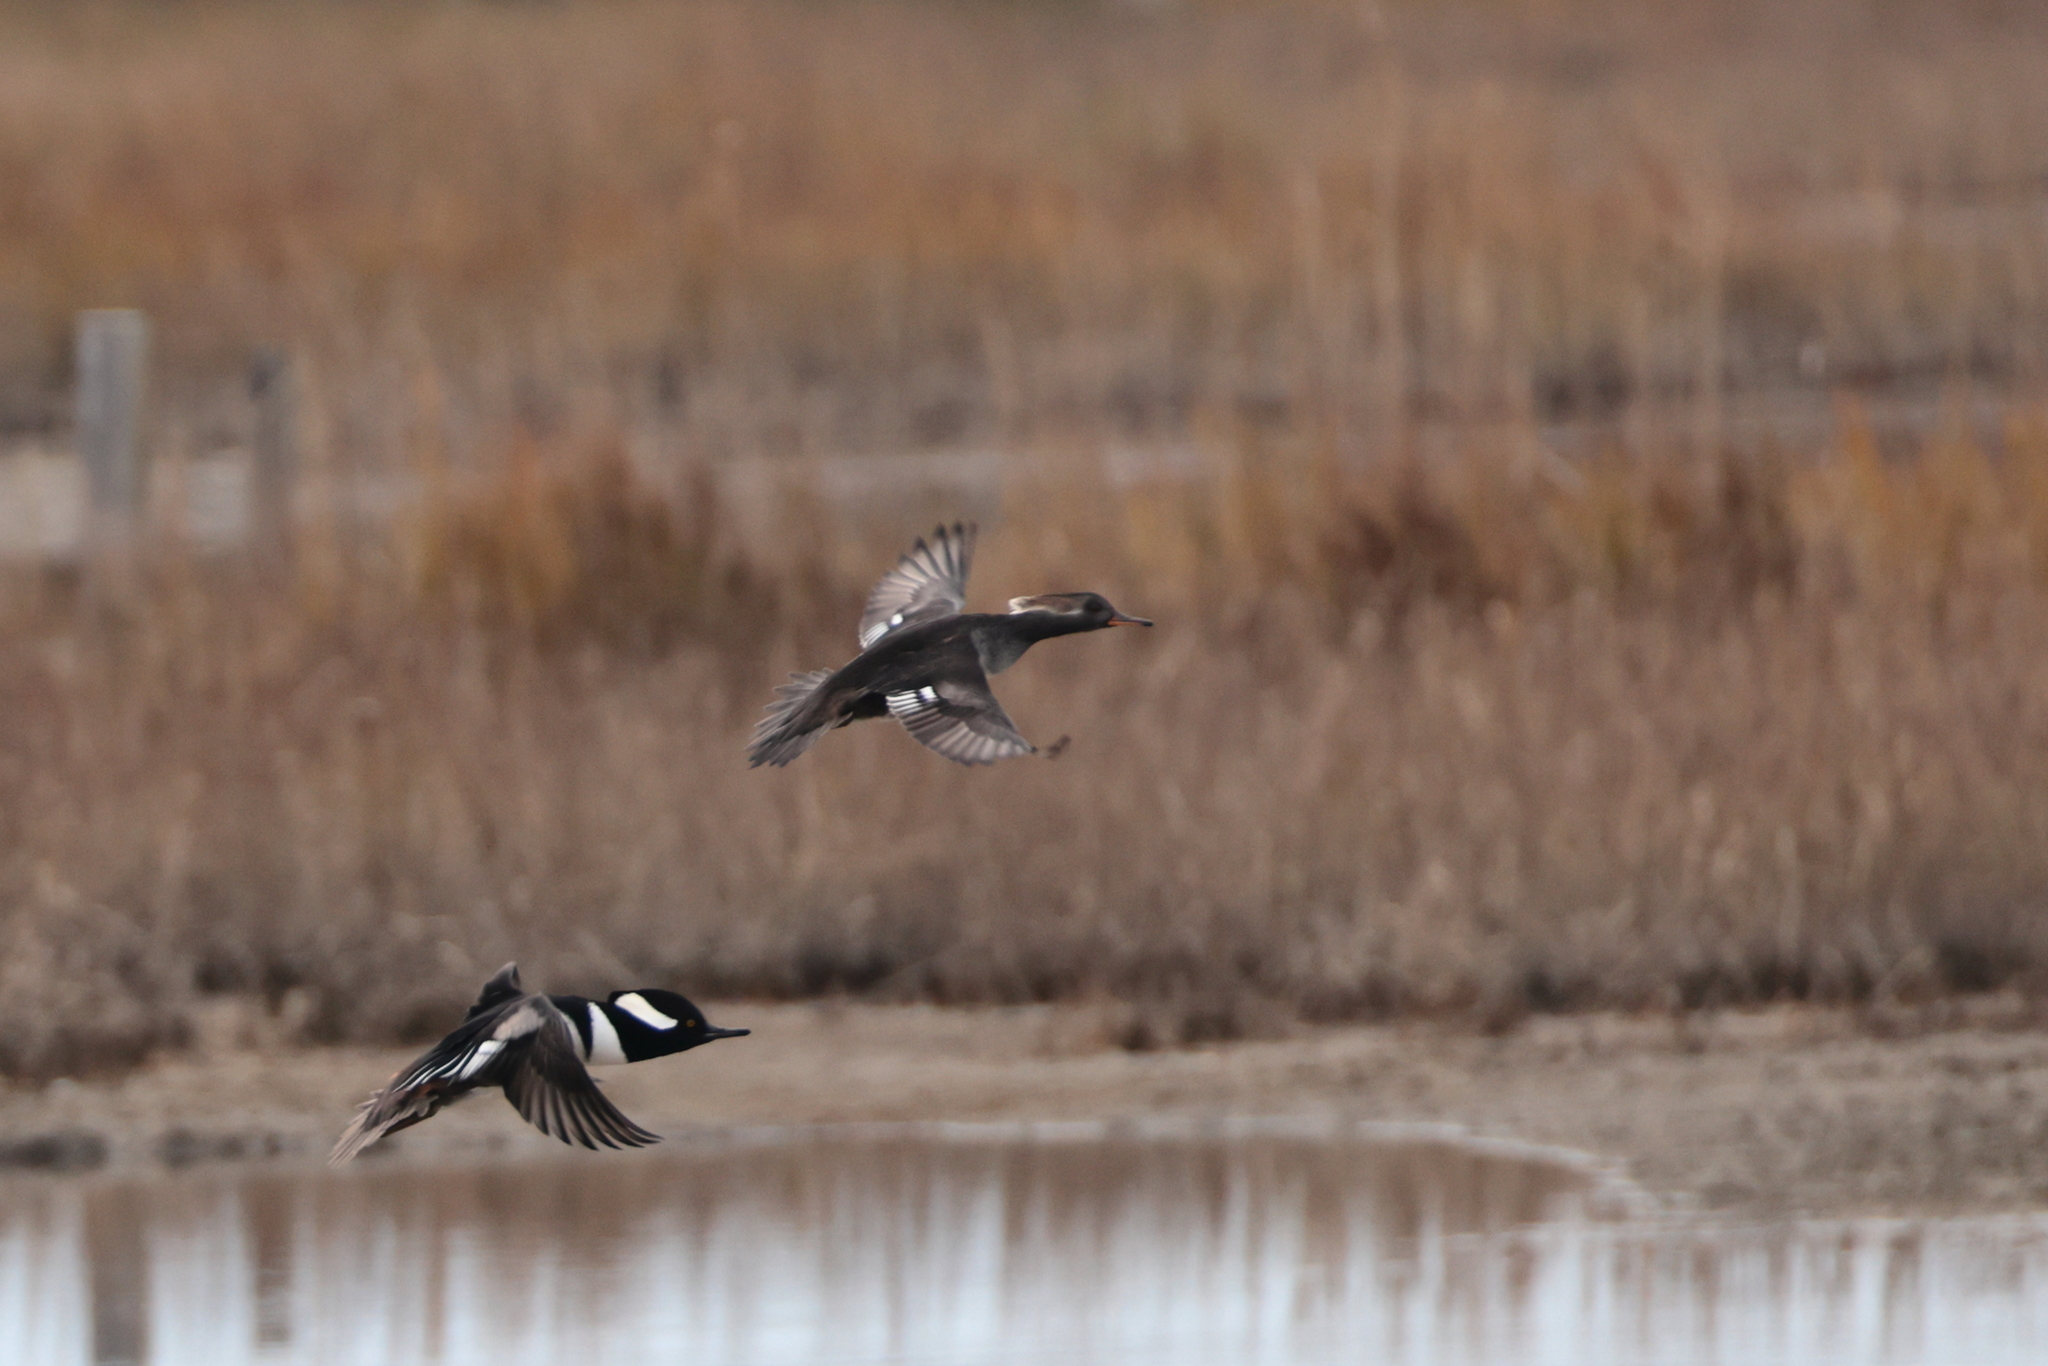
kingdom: Animalia
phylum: Chordata
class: Aves
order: Anseriformes
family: Anatidae
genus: Lophodytes
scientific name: Lophodytes cucullatus
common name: Hooded merganser
